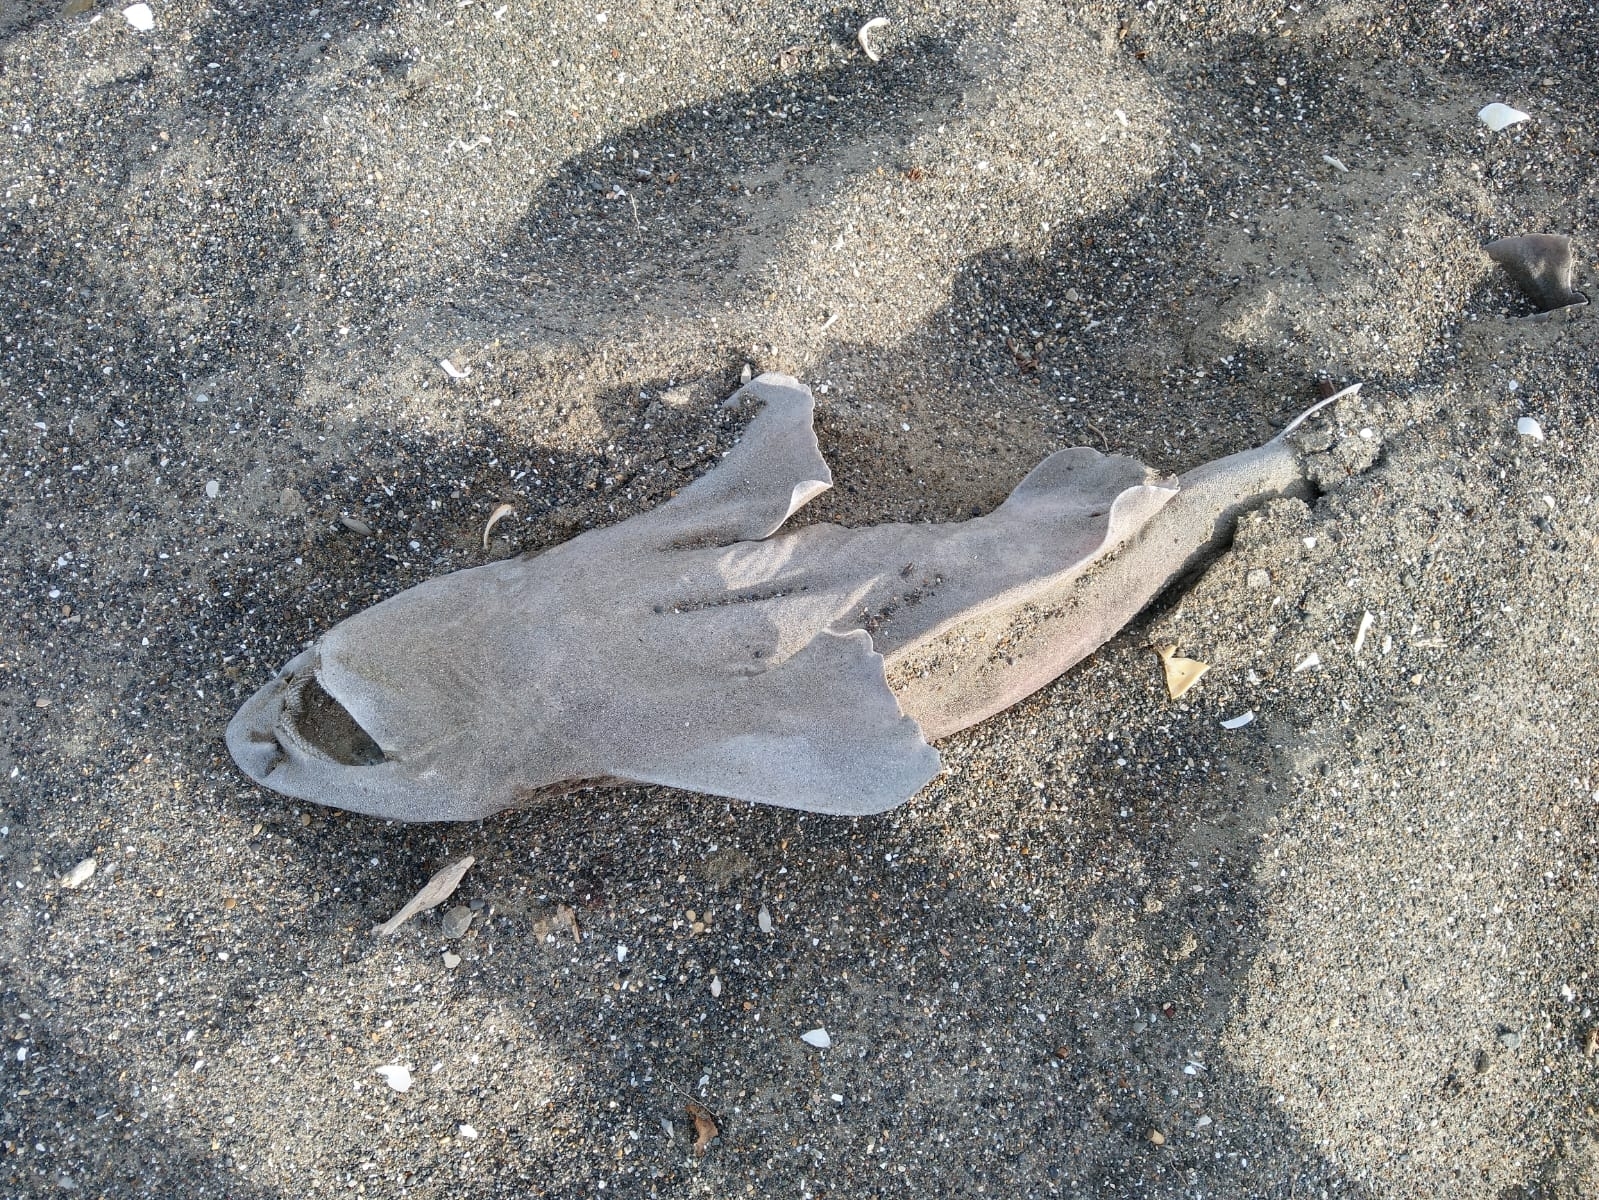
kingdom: Animalia
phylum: Chordata
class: Elasmobranchii
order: Carcharhiniformes
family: Scyliorhinidae
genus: Cephaloscyllium
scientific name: Cephaloscyllium isabellum
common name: Carpet shark
